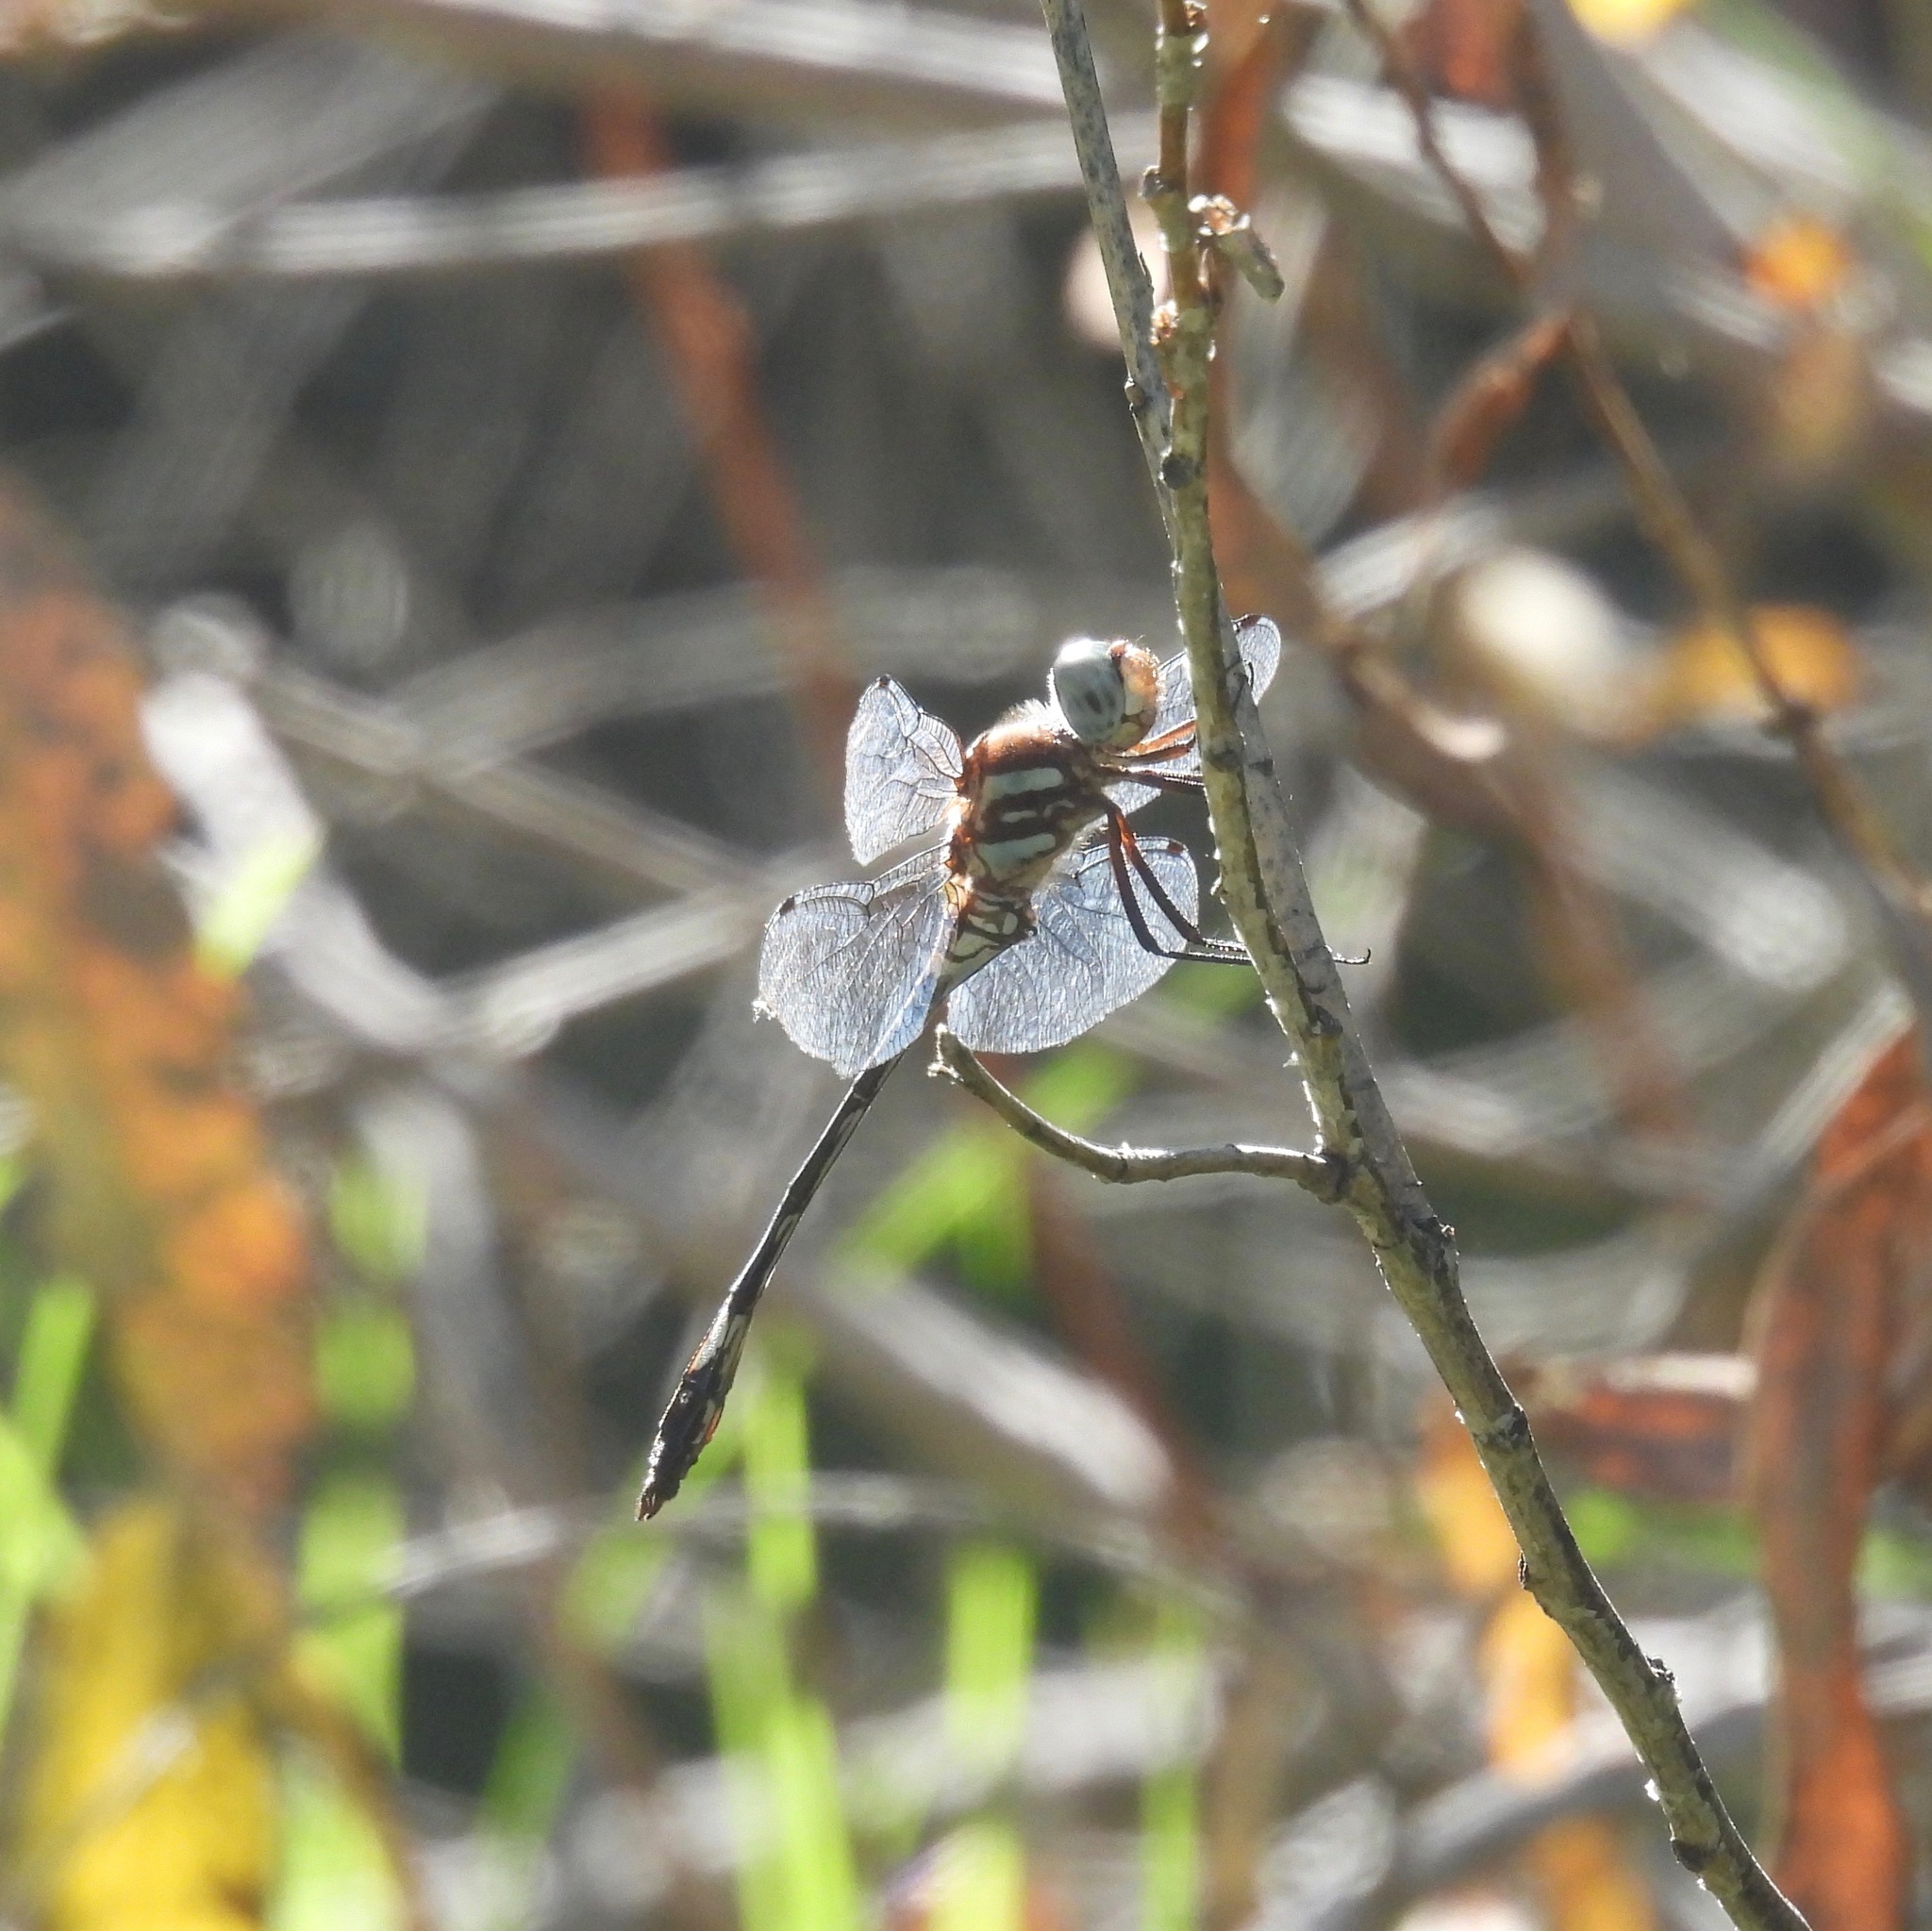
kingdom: Animalia
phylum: Arthropoda
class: Insecta
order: Odonata
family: Libellulidae
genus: Brechmorhoga
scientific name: Brechmorhoga mendax
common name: Pale-faced clubskimmer
